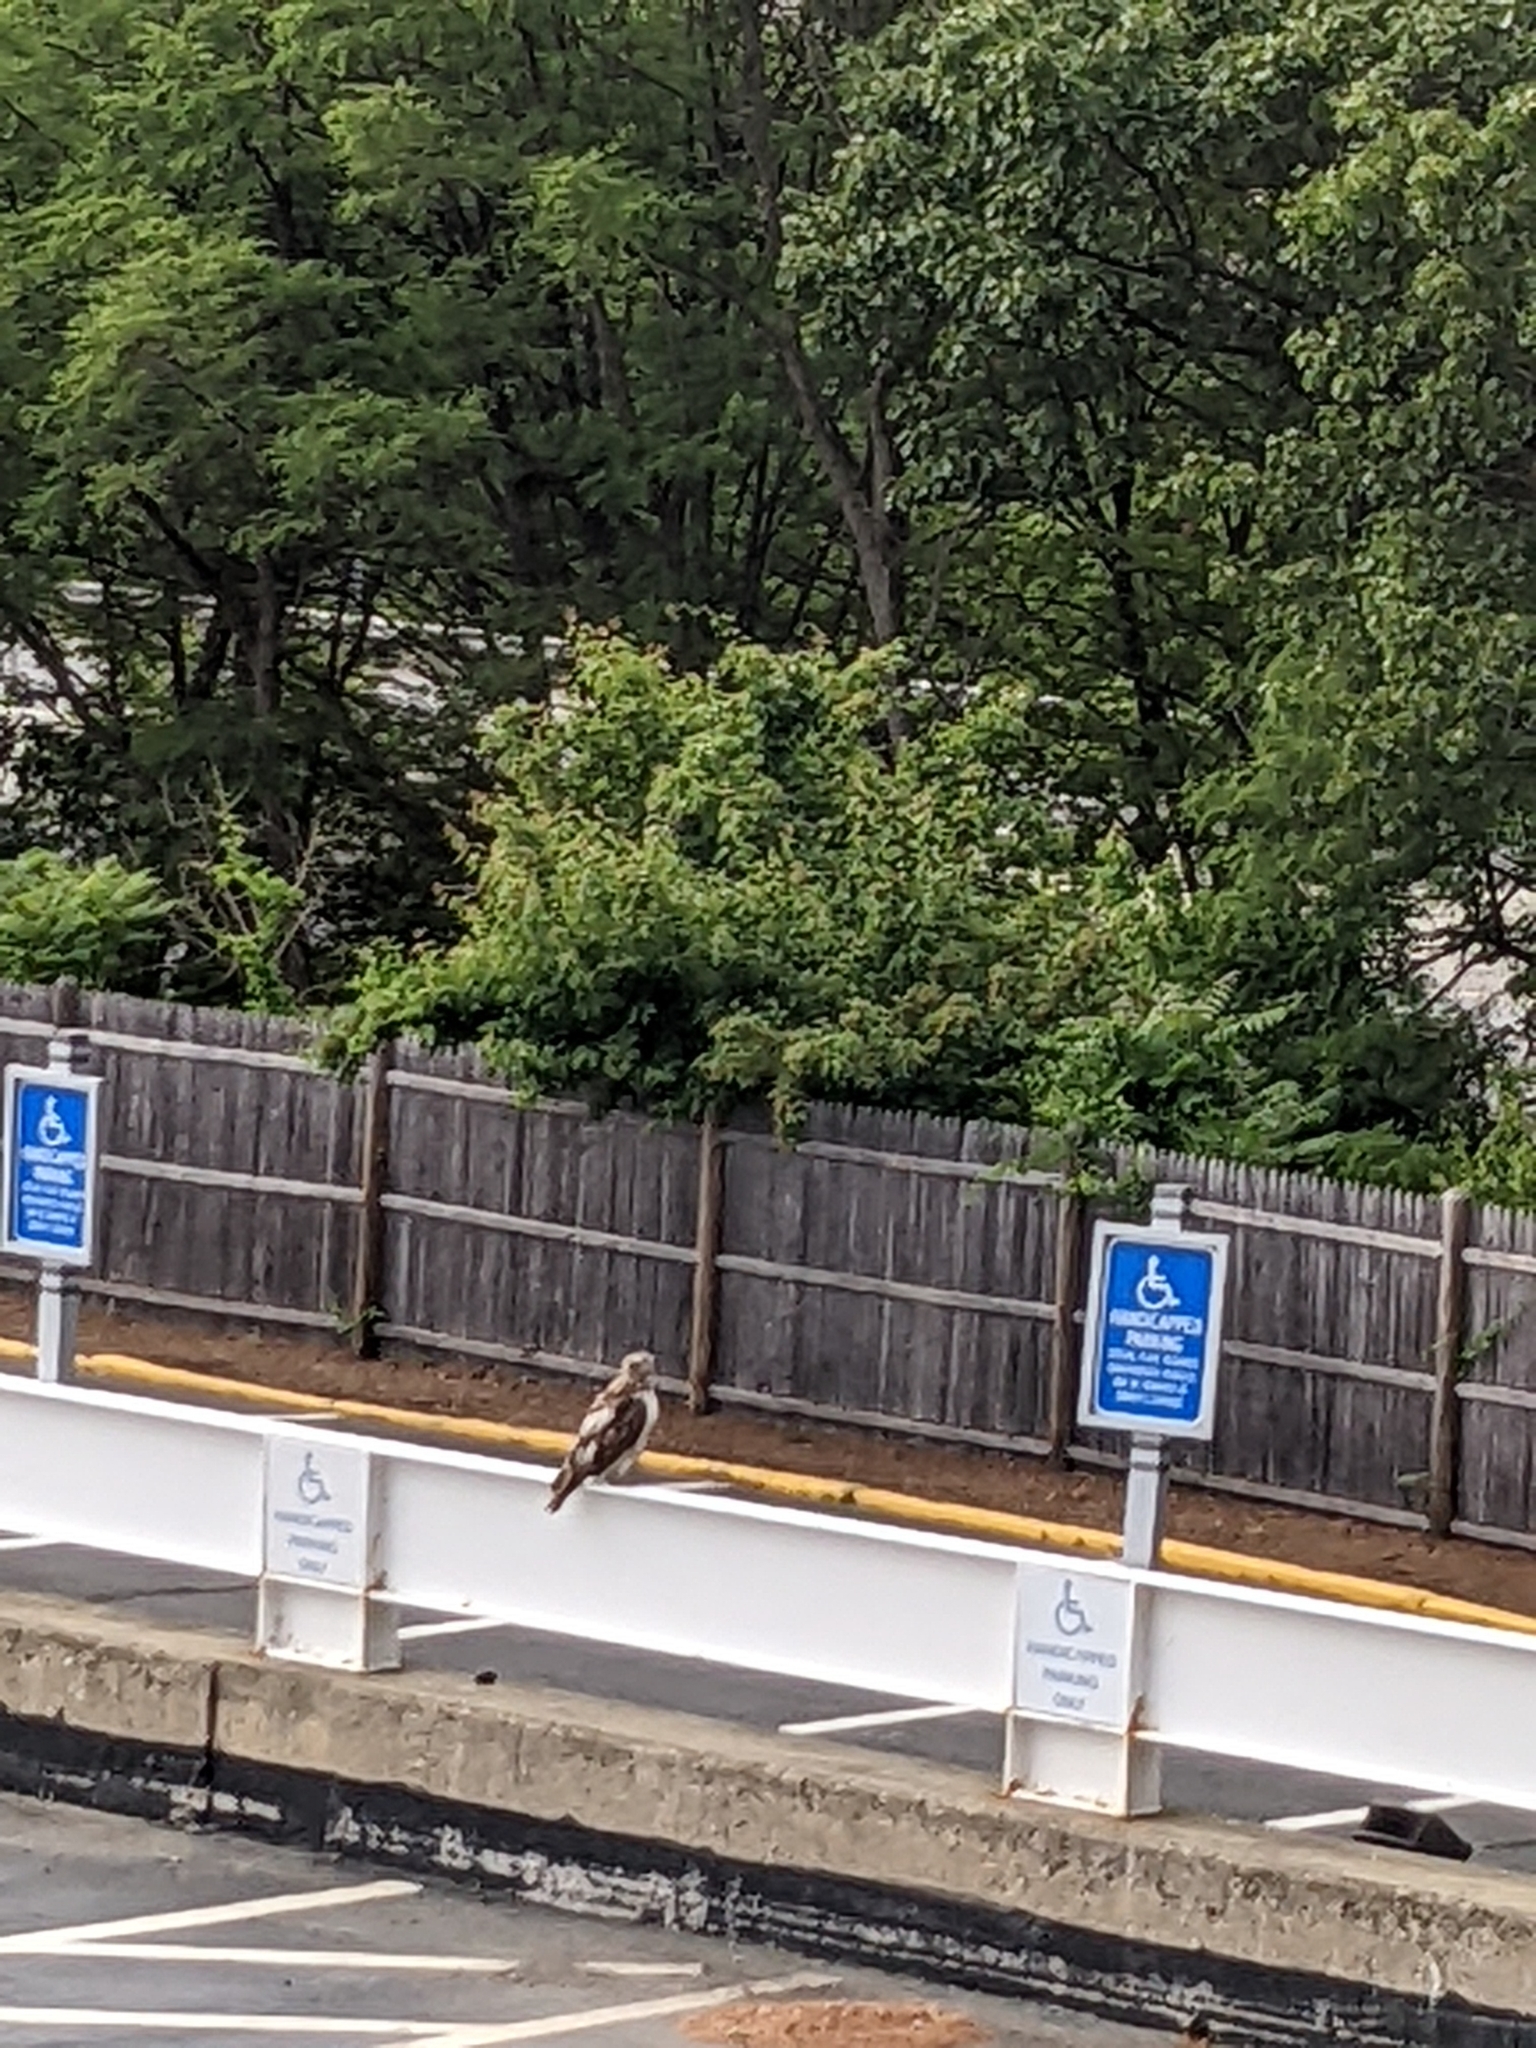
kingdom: Animalia
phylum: Chordata
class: Aves
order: Accipitriformes
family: Accipitridae
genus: Buteo
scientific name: Buteo jamaicensis
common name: Red-tailed hawk
